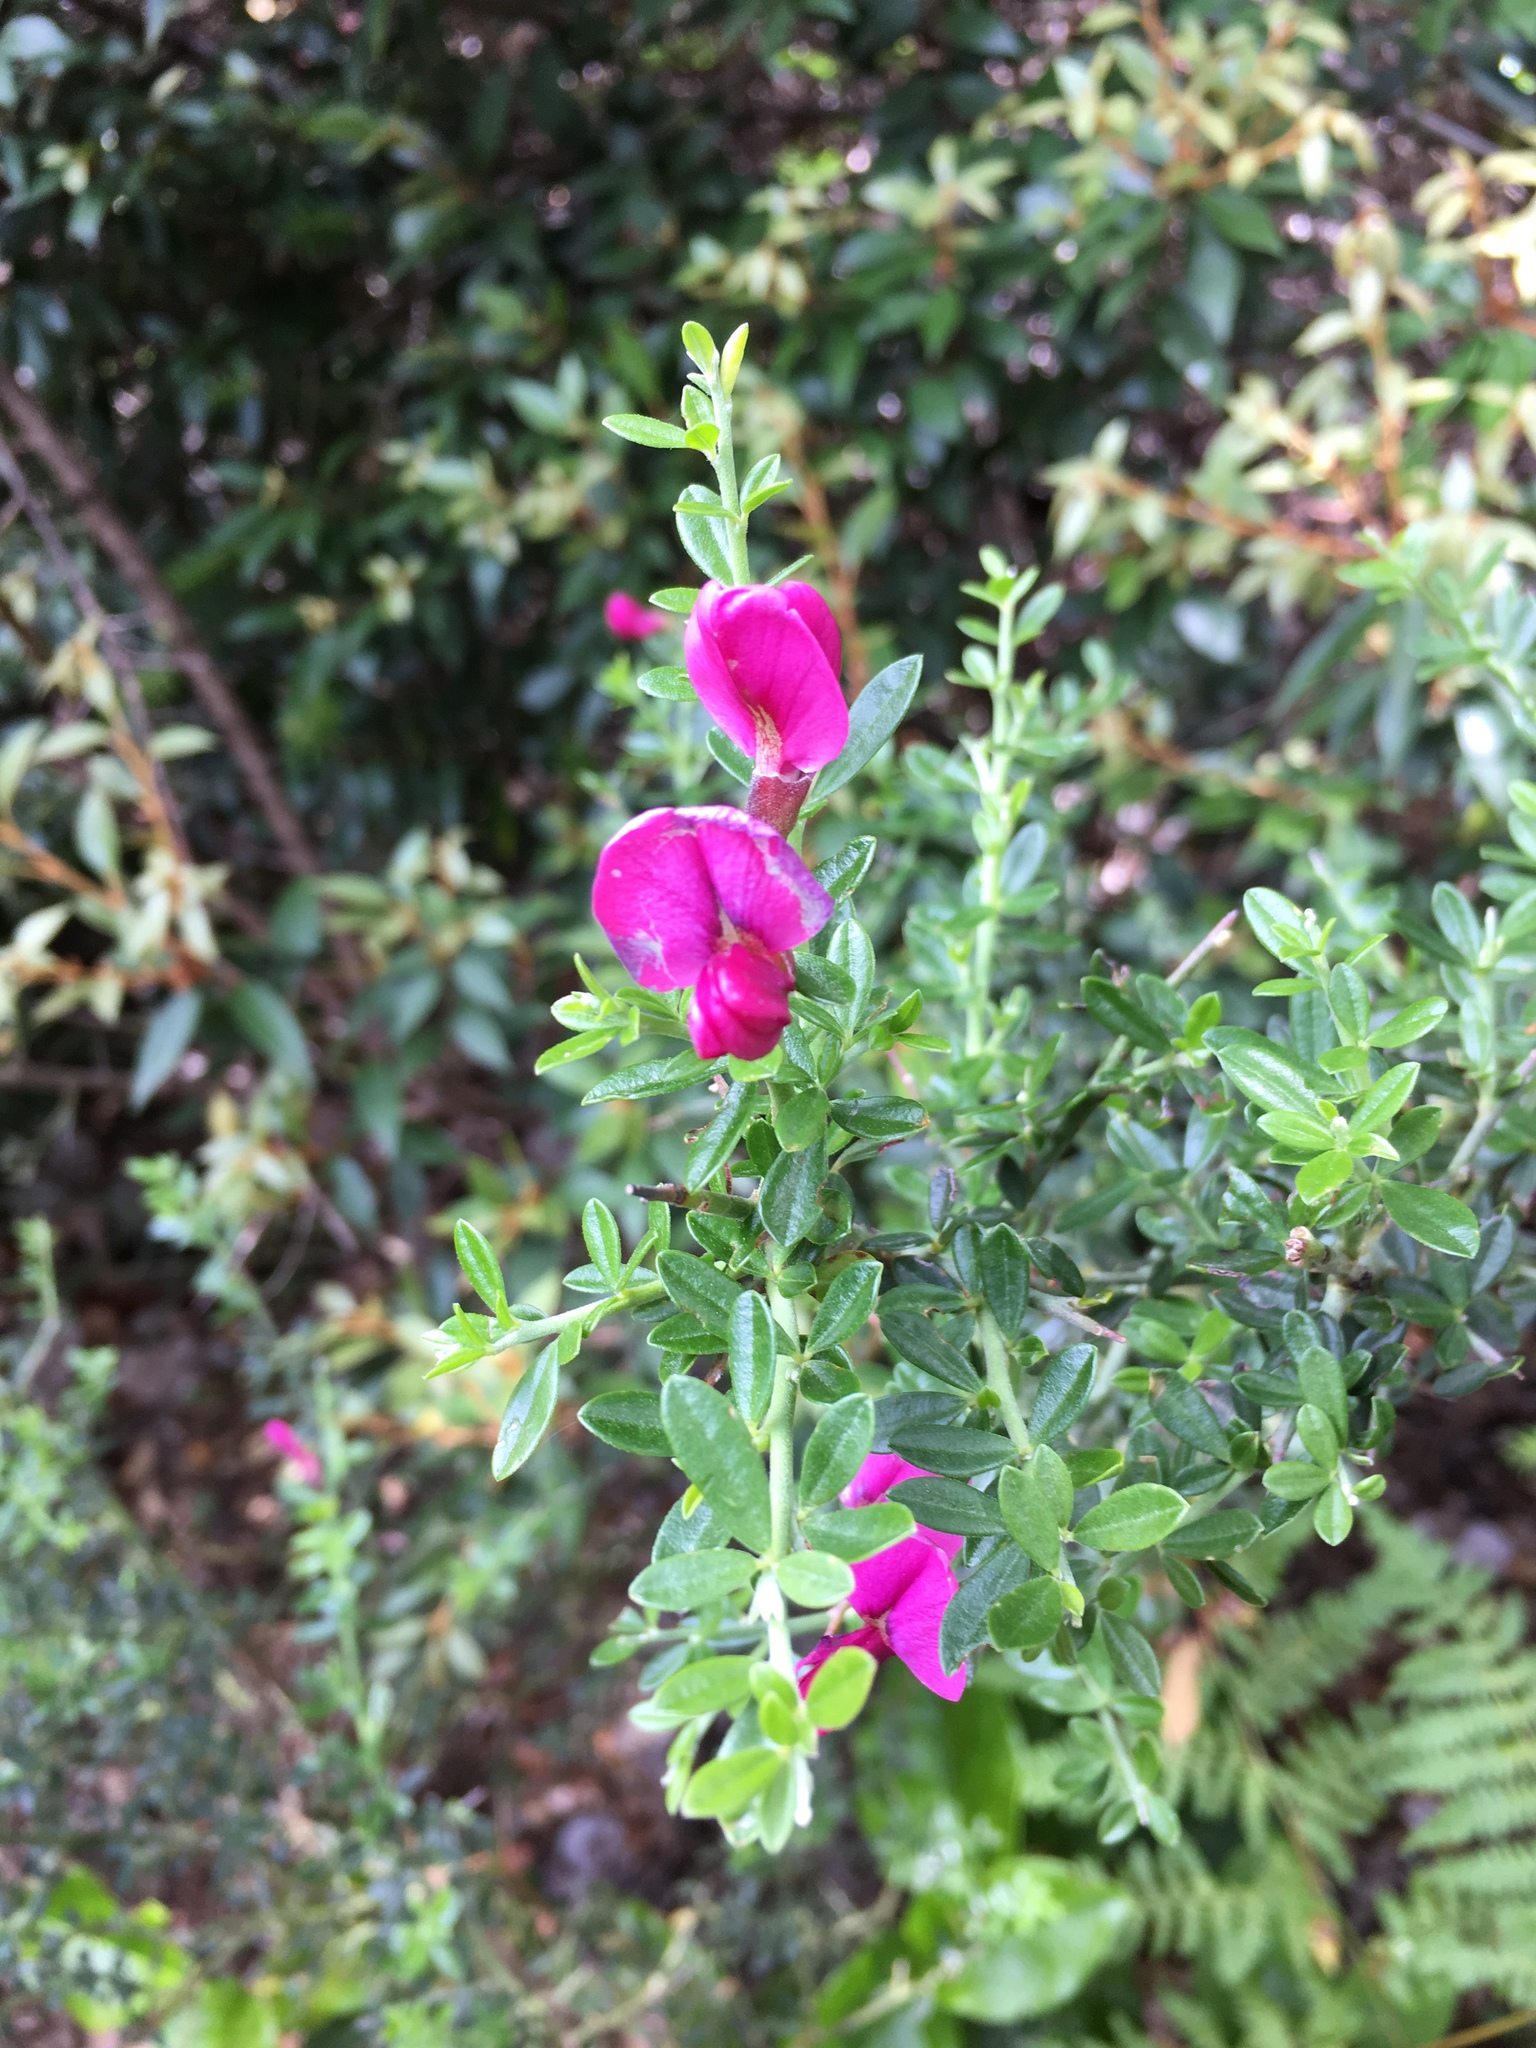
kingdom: Plantae
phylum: Tracheophyta
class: Magnoliopsida
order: Fabales
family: Fabaceae
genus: Pickeringia
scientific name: Pickeringia montana
